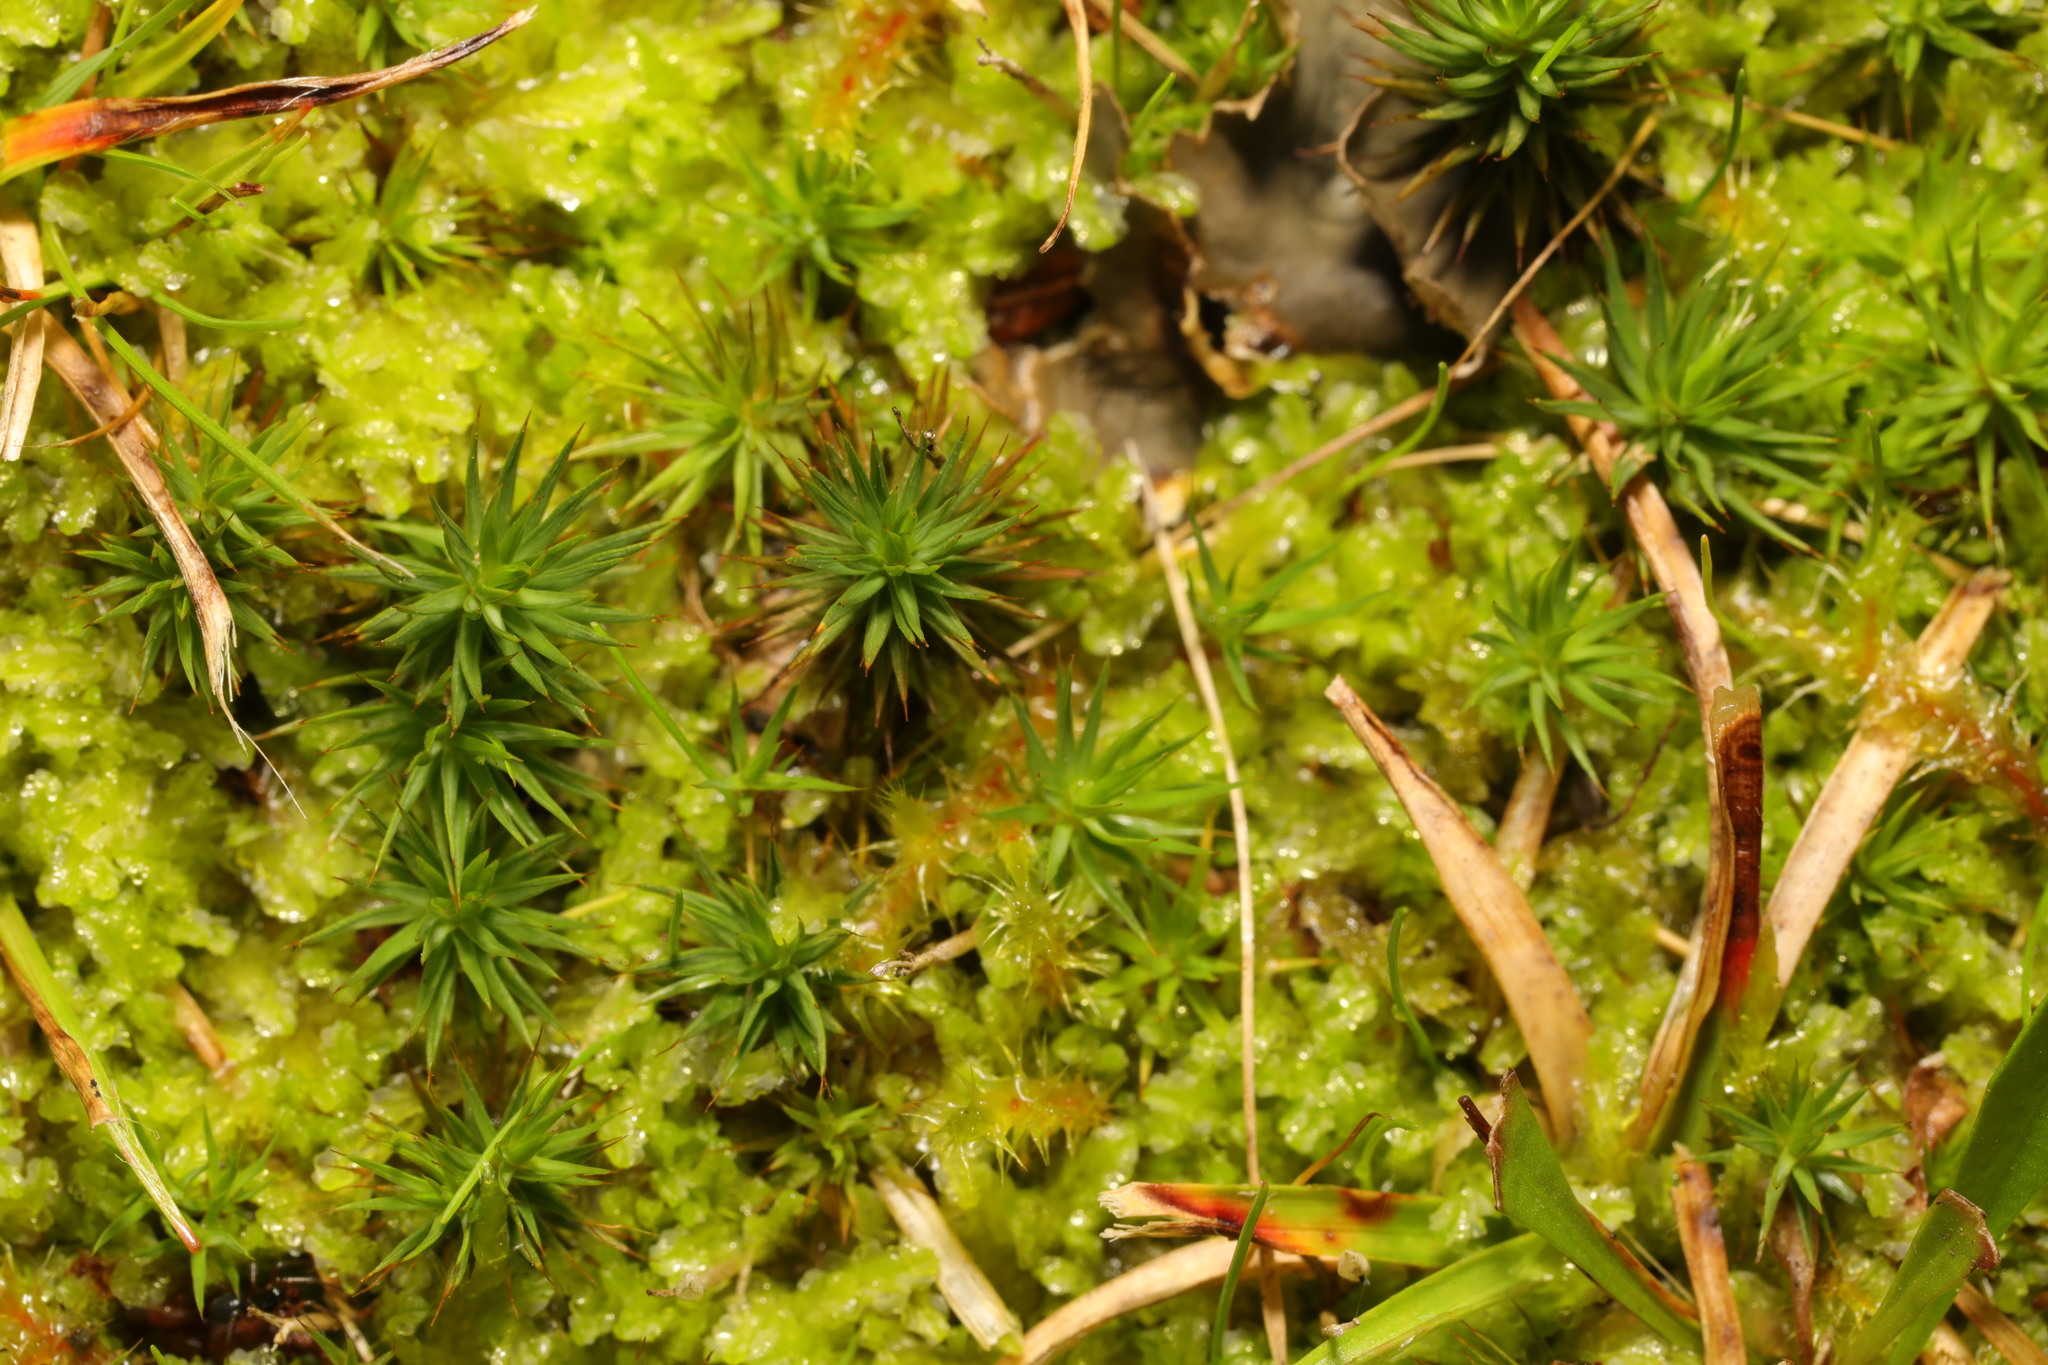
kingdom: Plantae
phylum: Bryophyta
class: Polytrichopsida
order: Polytrichales
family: Polytrichaceae
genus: Polytrichum
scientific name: Polytrichum juniperinum
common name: Juniper haircap moss
